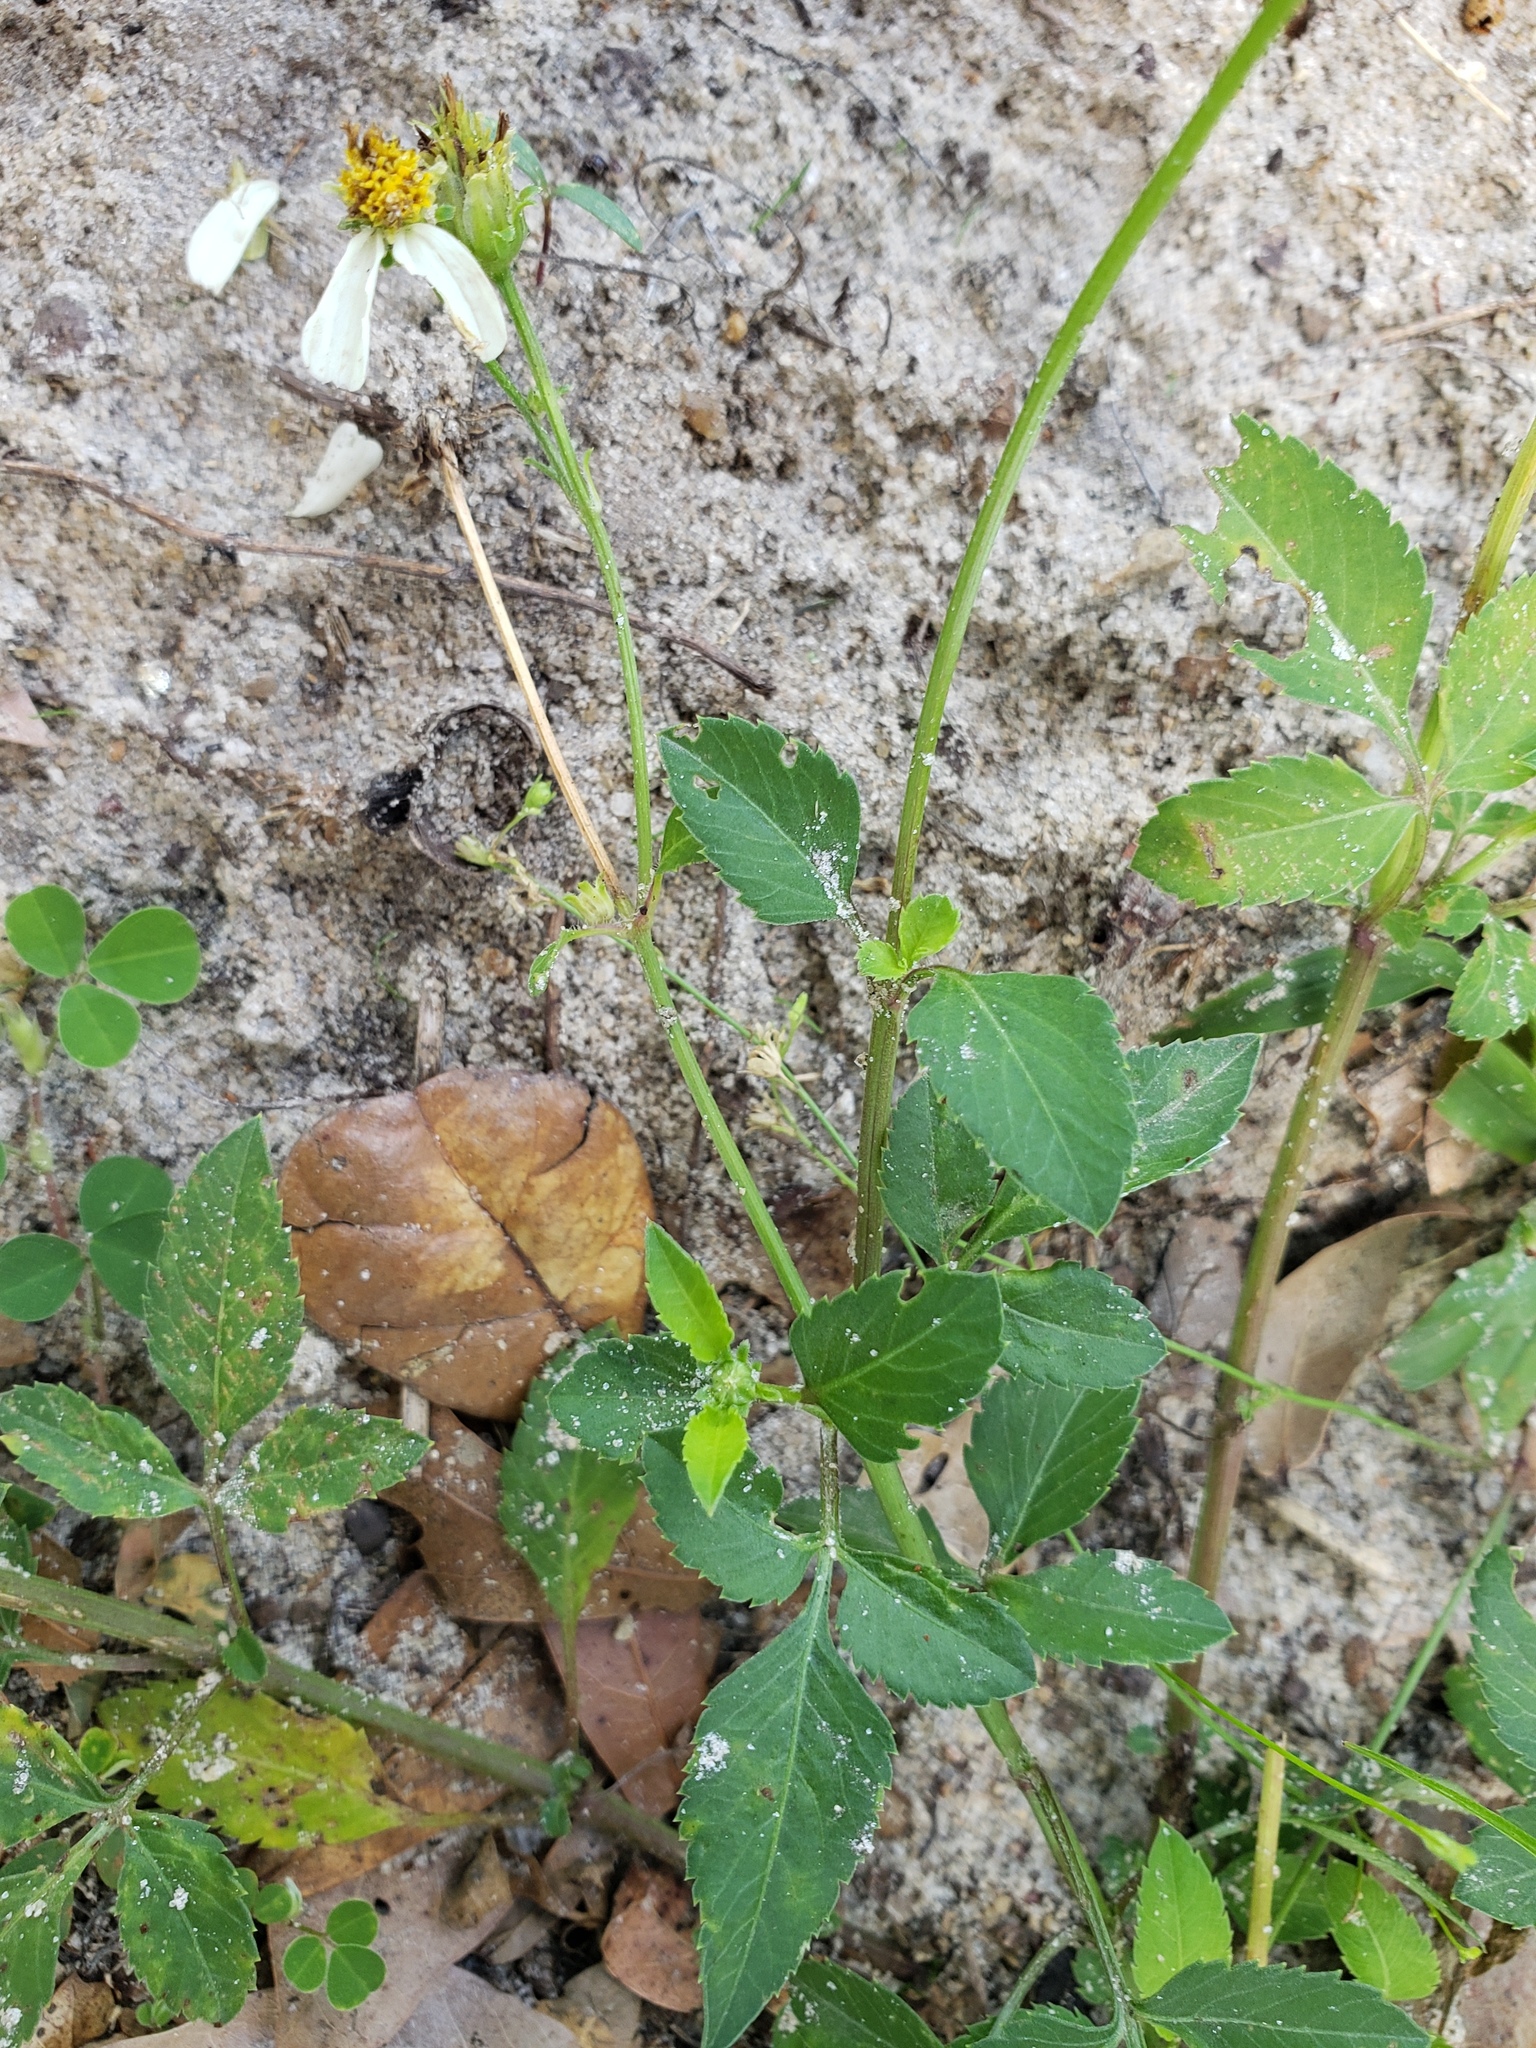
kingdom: Plantae
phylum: Tracheophyta
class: Magnoliopsida
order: Asterales
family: Asteraceae
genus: Bidens
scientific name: Bidens alba
